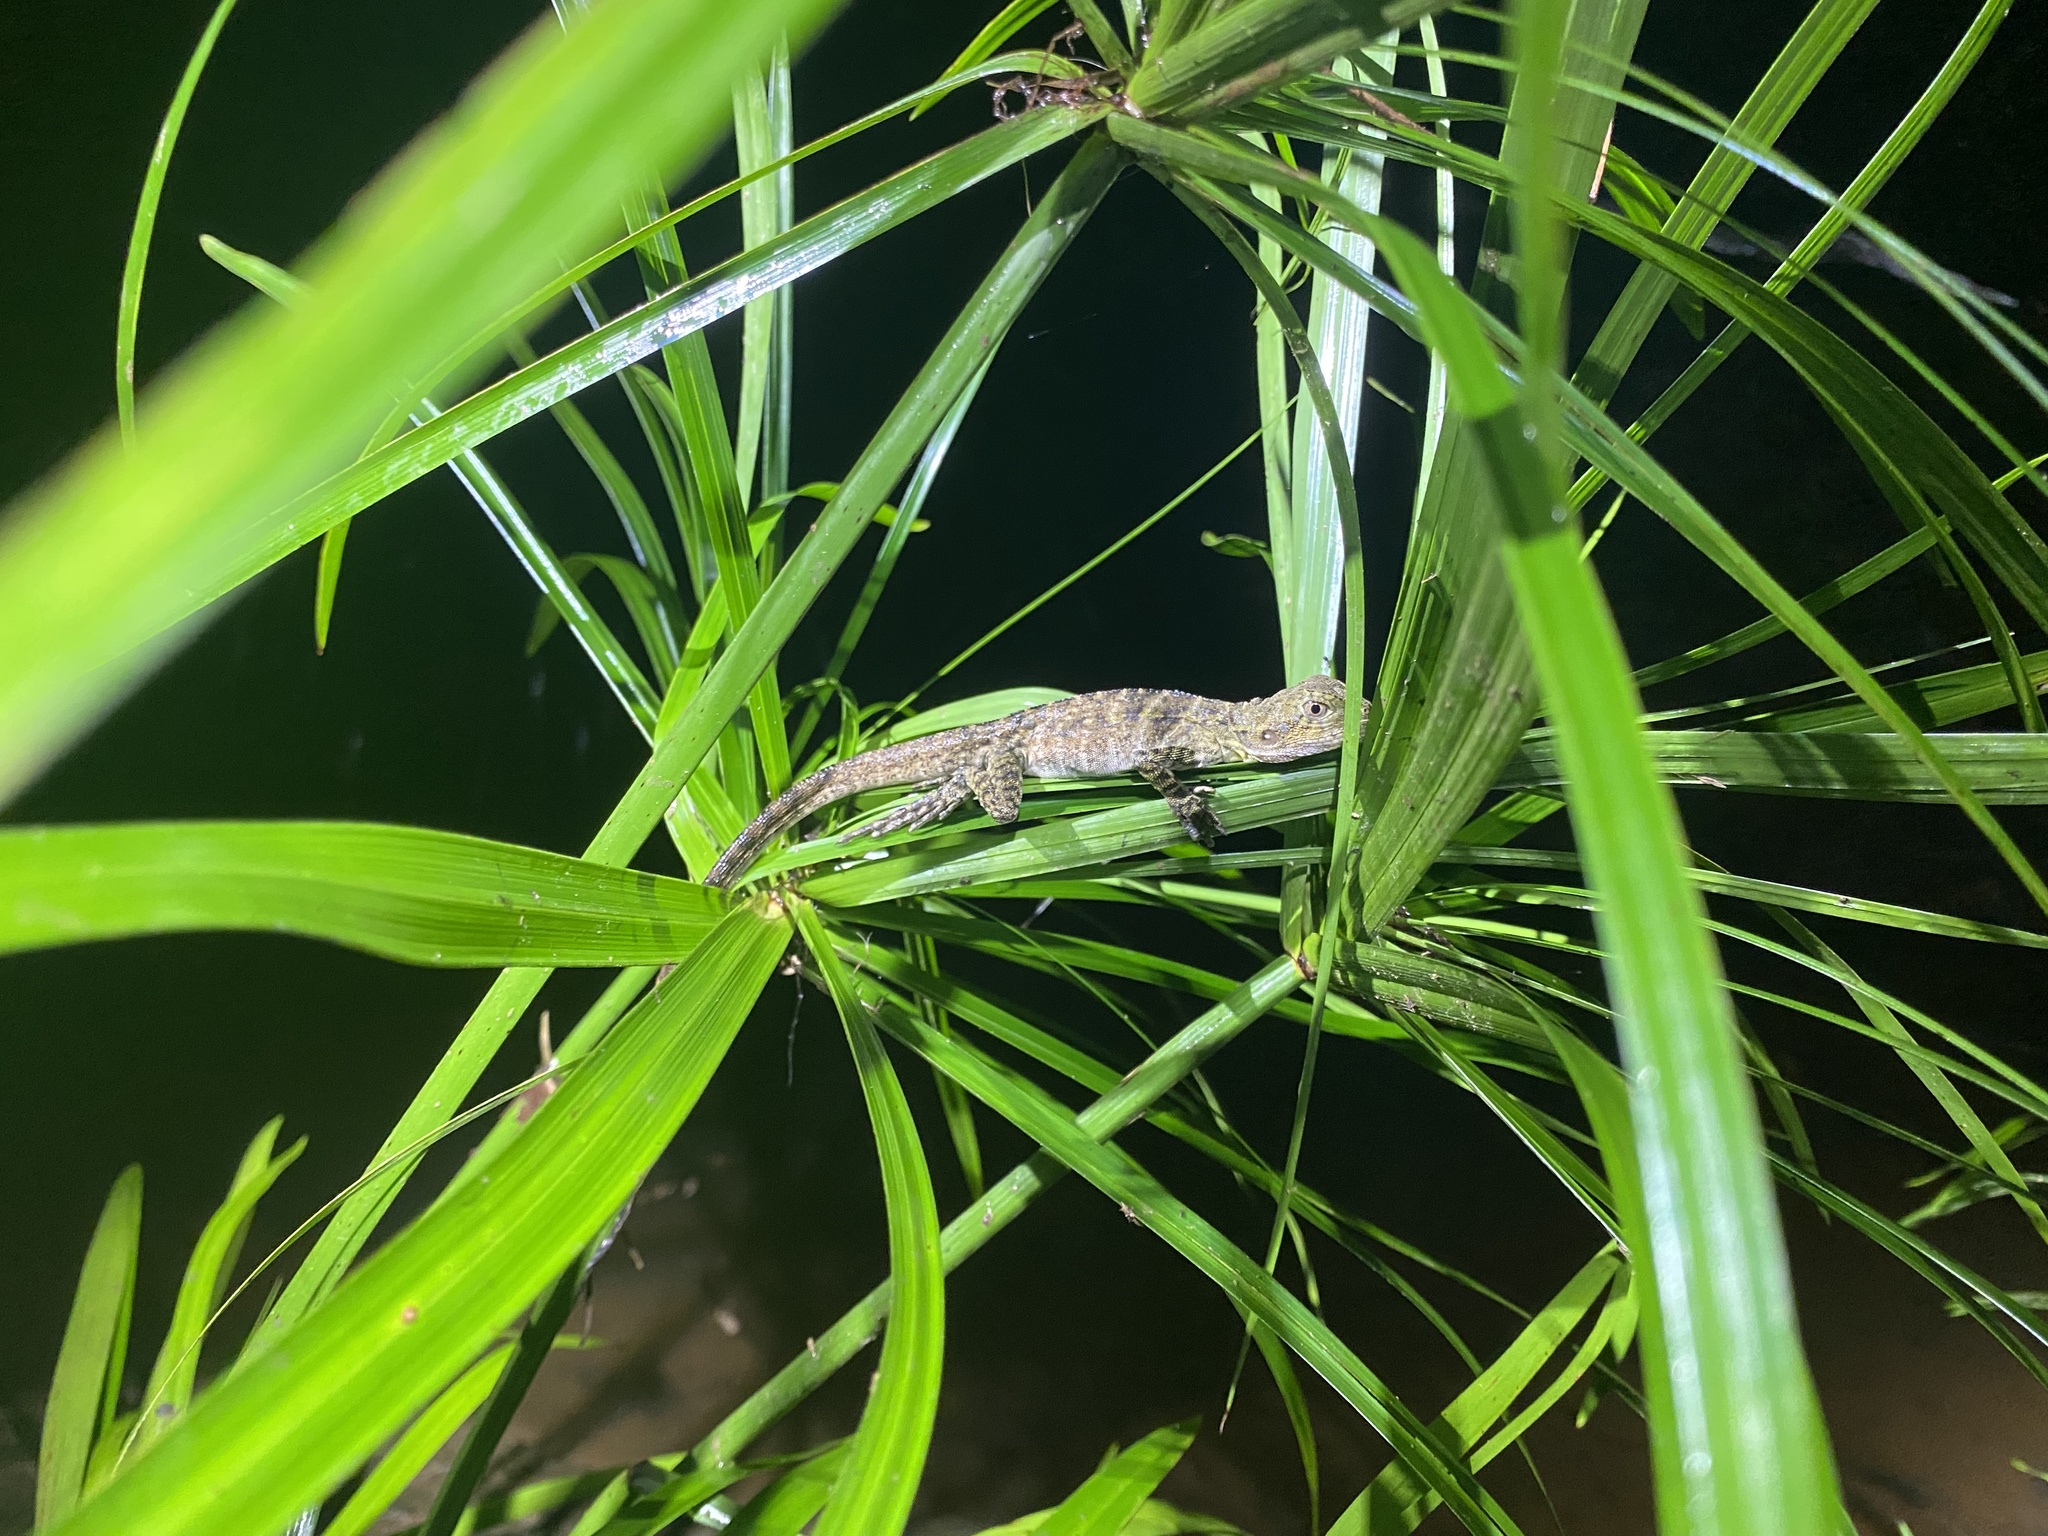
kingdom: Animalia
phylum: Chordata
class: Squamata
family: Agamidae
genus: Intellagama
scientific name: Intellagama lesueurii
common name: Eastern water dragon
